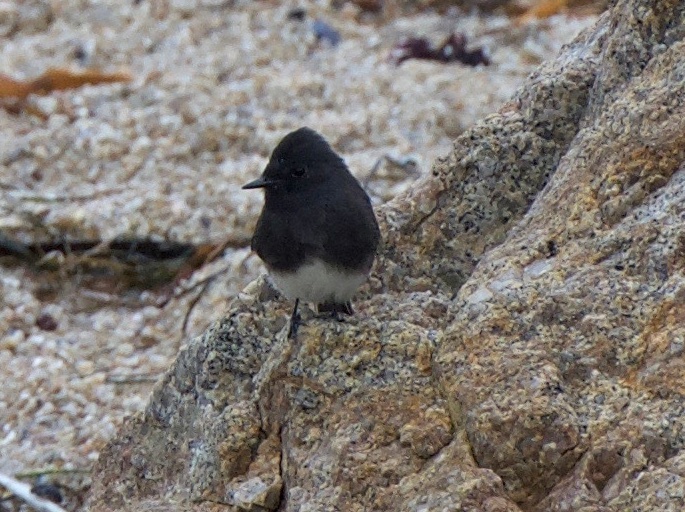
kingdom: Animalia
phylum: Chordata
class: Aves
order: Passeriformes
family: Tyrannidae
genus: Sayornis
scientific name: Sayornis nigricans
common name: Black phoebe
